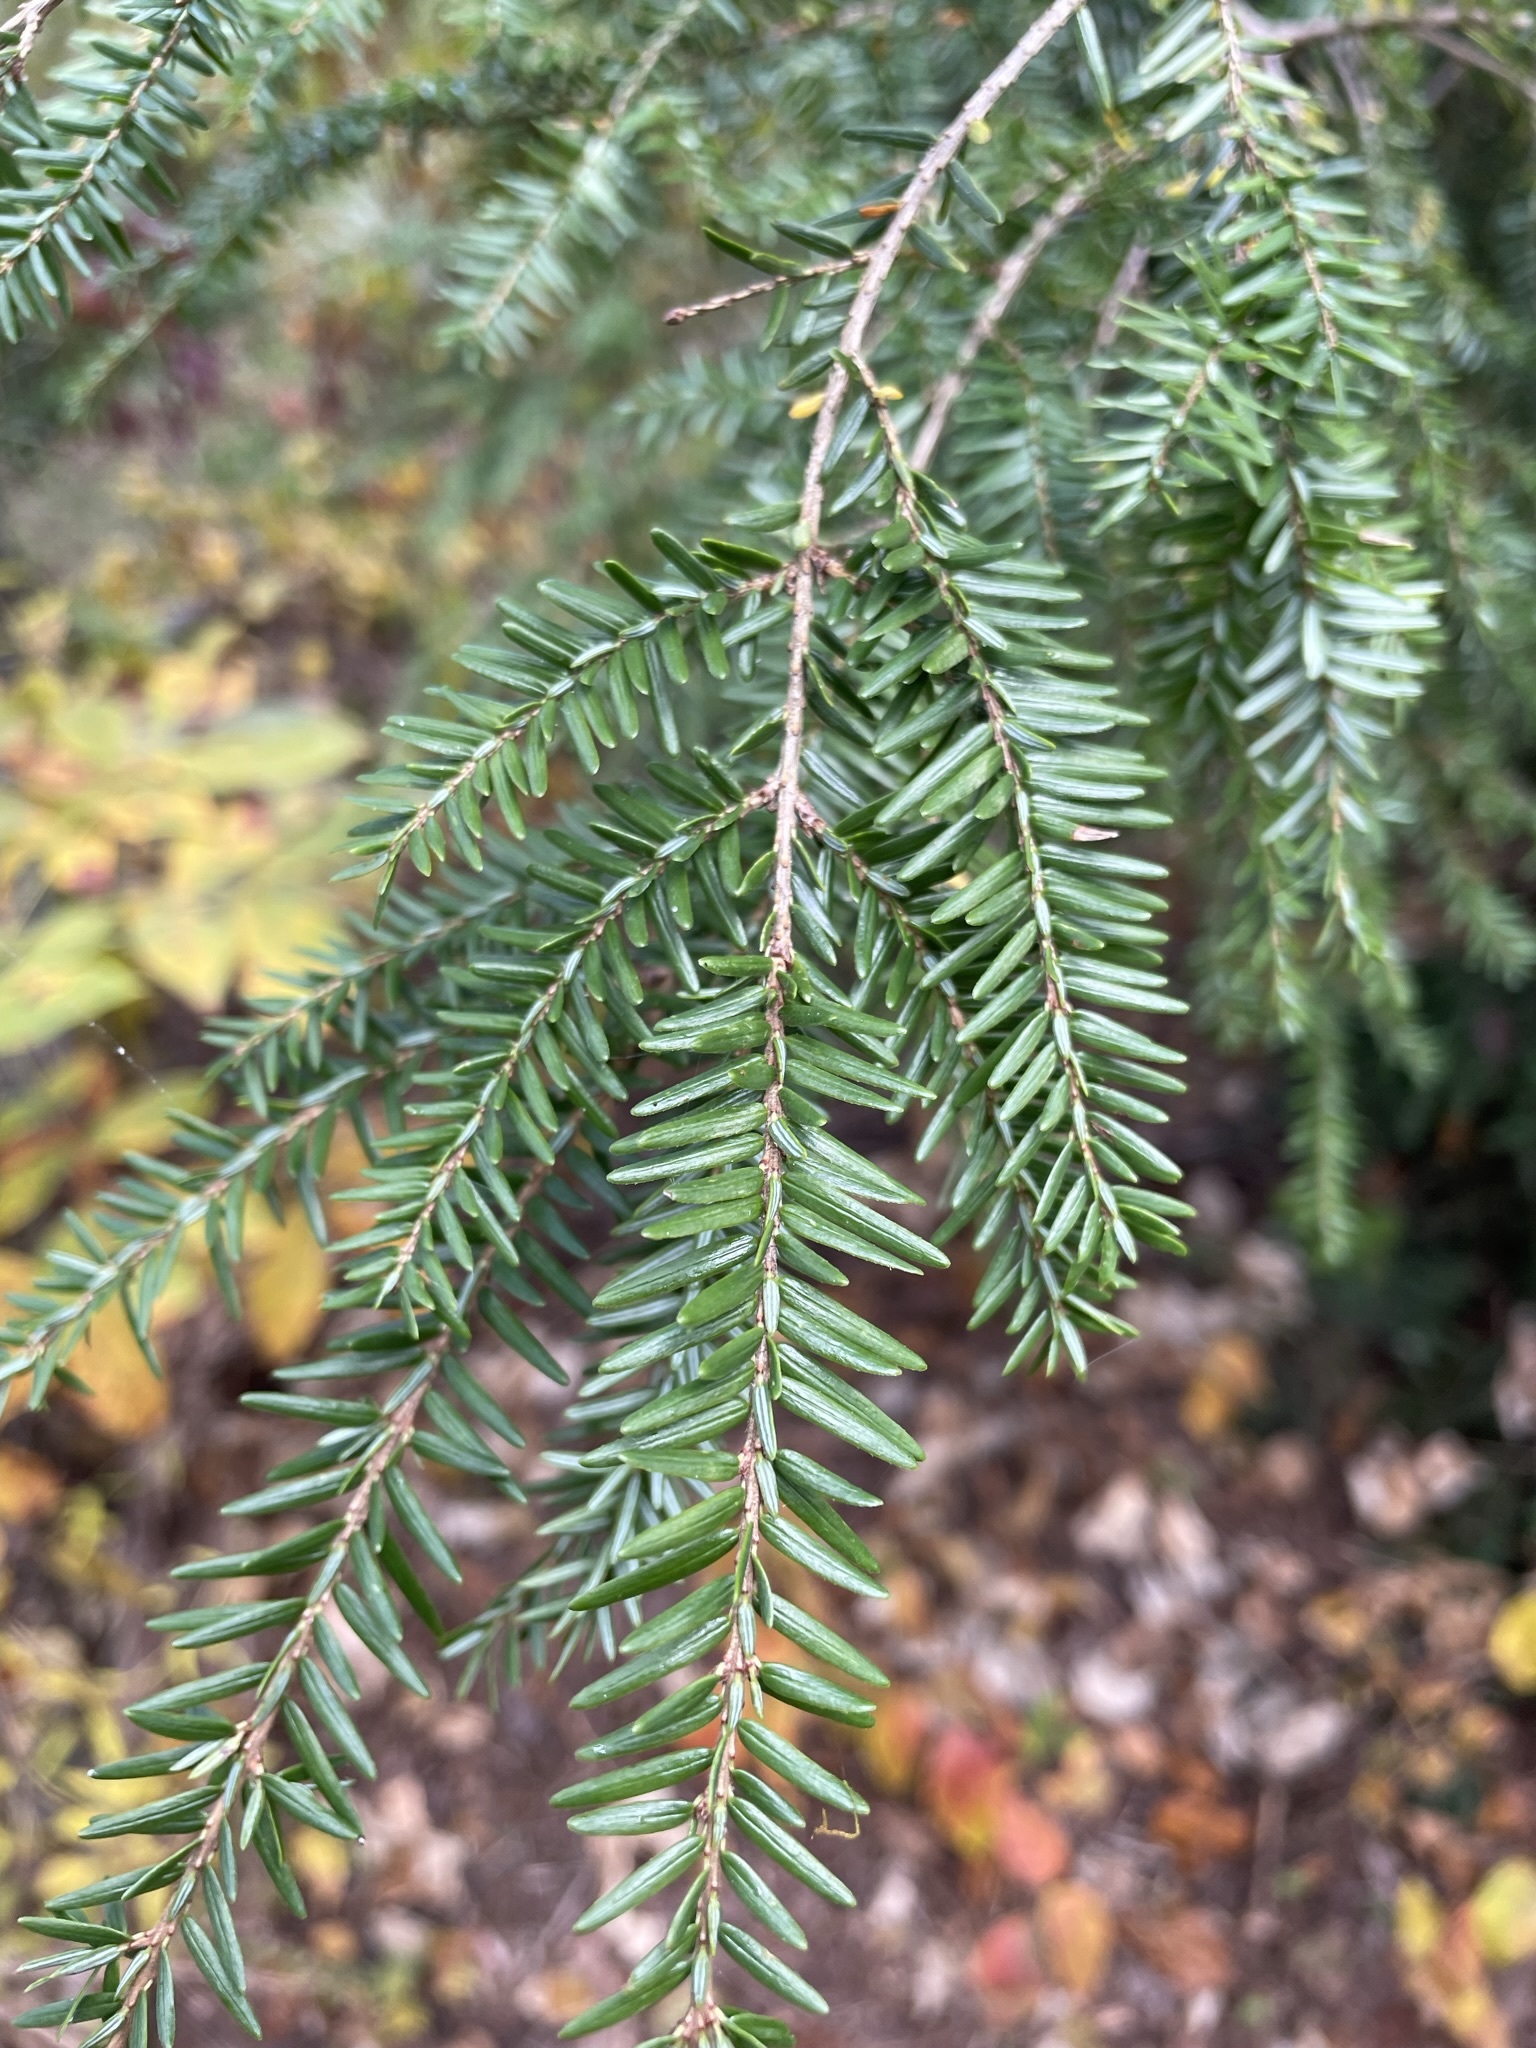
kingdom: Plantae
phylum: Tracheophyta
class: Pinopsida
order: Pinales
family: Pinaceae
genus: Tsuga
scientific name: Tsuga canadensis
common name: Eastern hemlock
